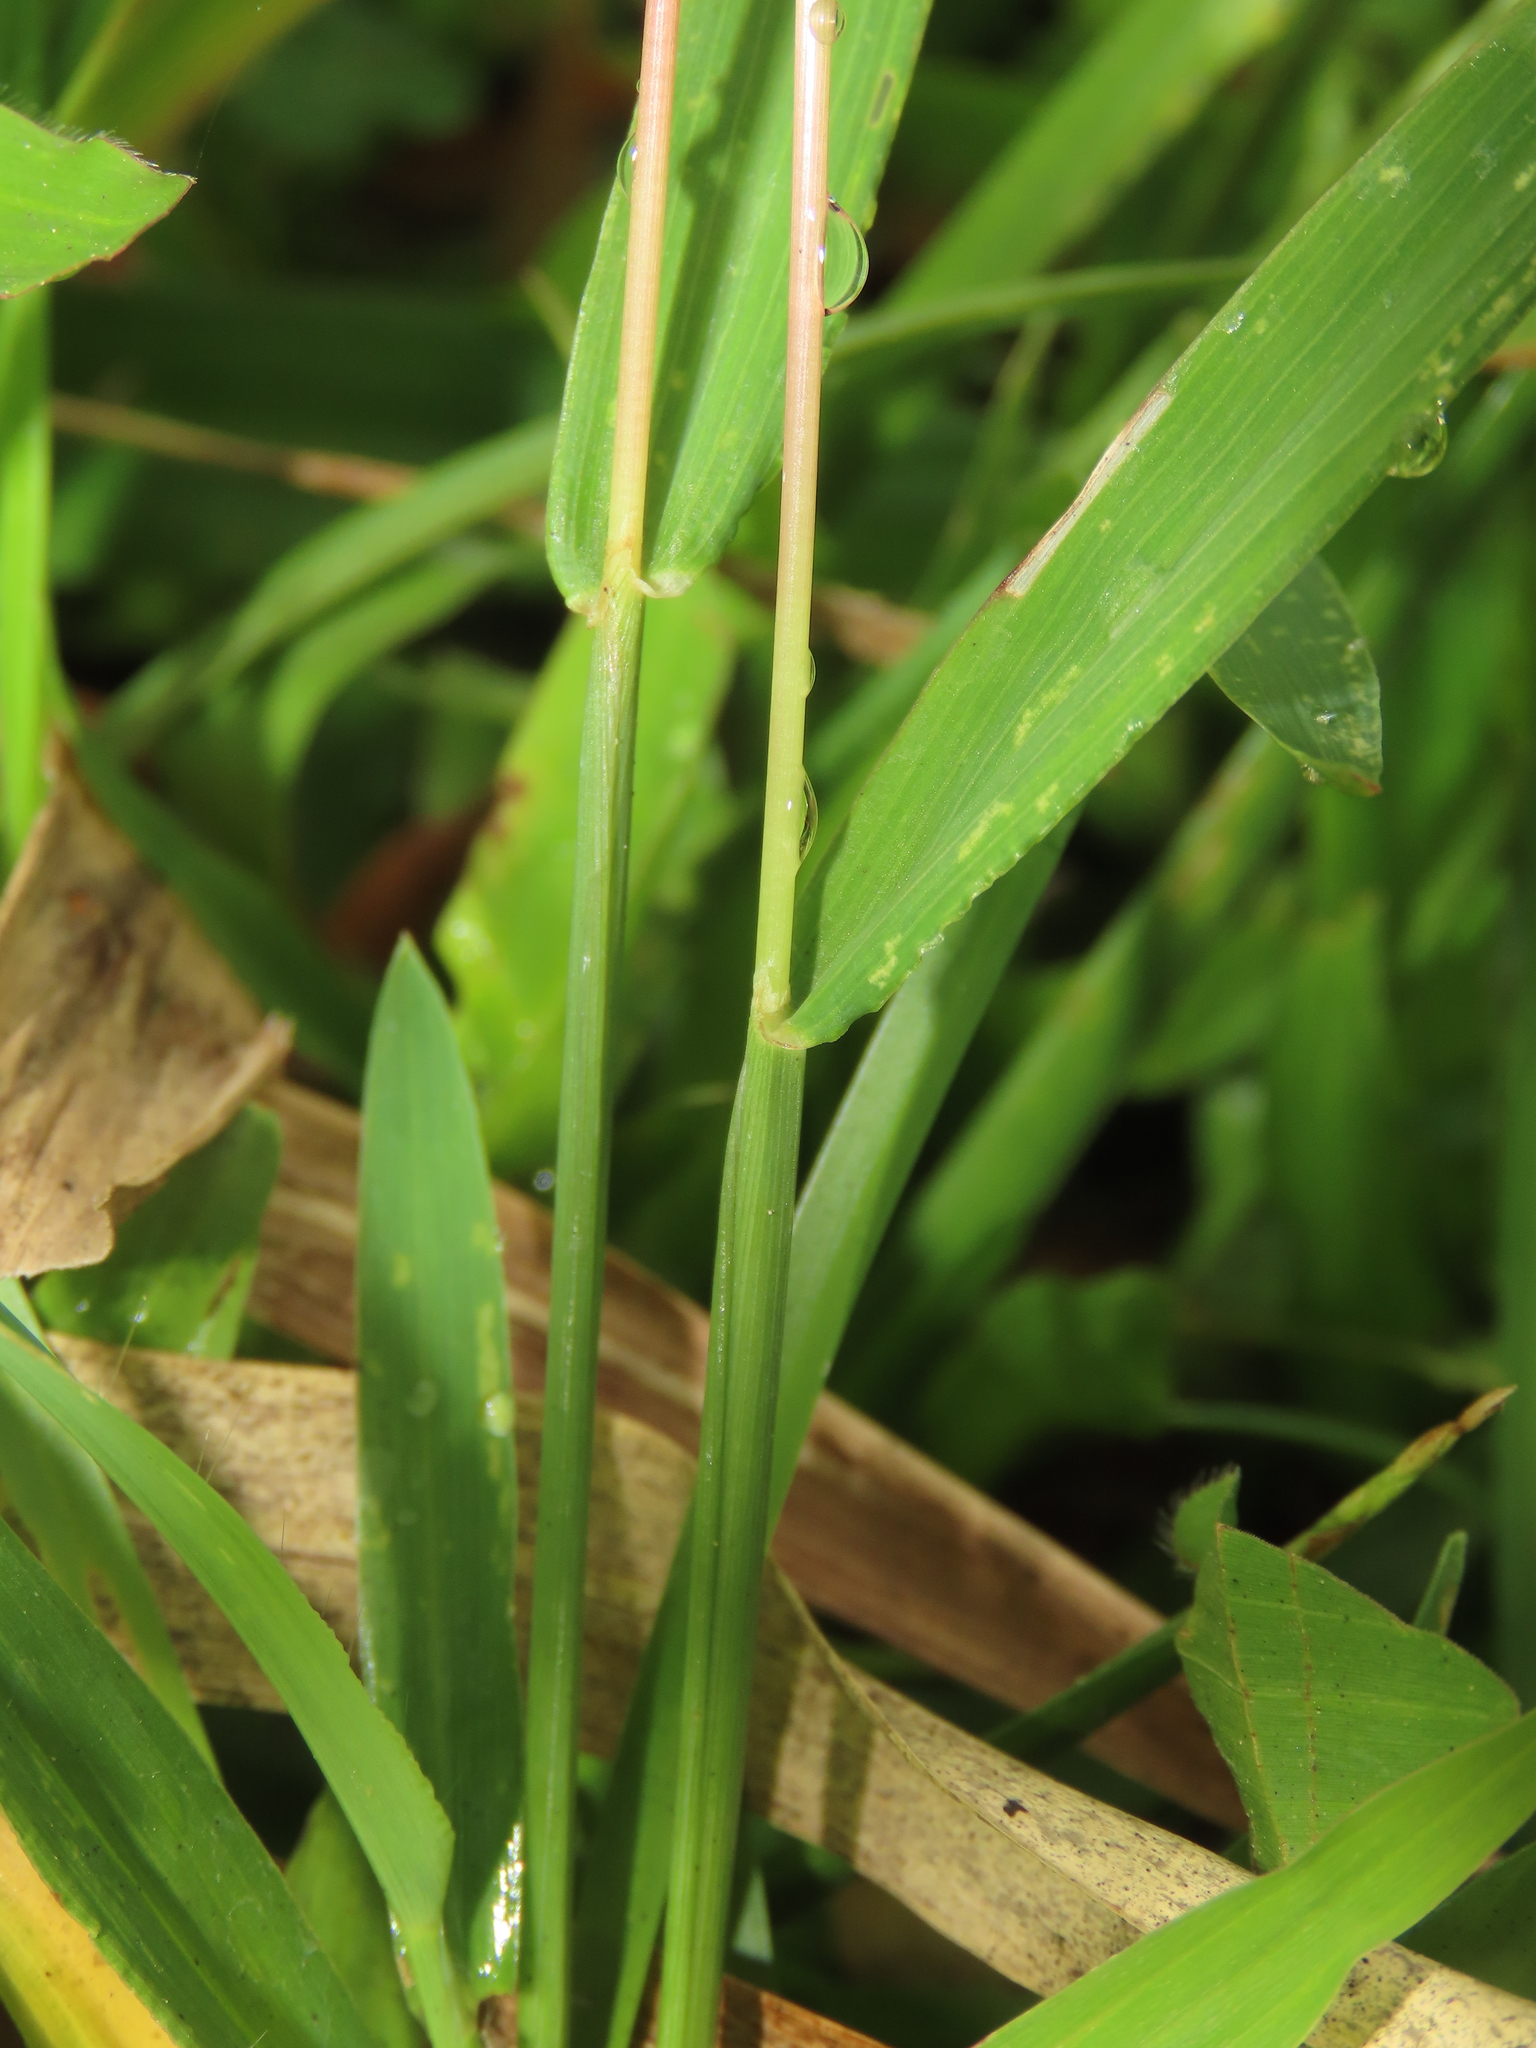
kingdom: Plantae
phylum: Tracheophyta
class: Liliopsida
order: Poales
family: Poaceae
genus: Digitaria
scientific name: Digitaria ciliaris
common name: Tropical finger-grass
